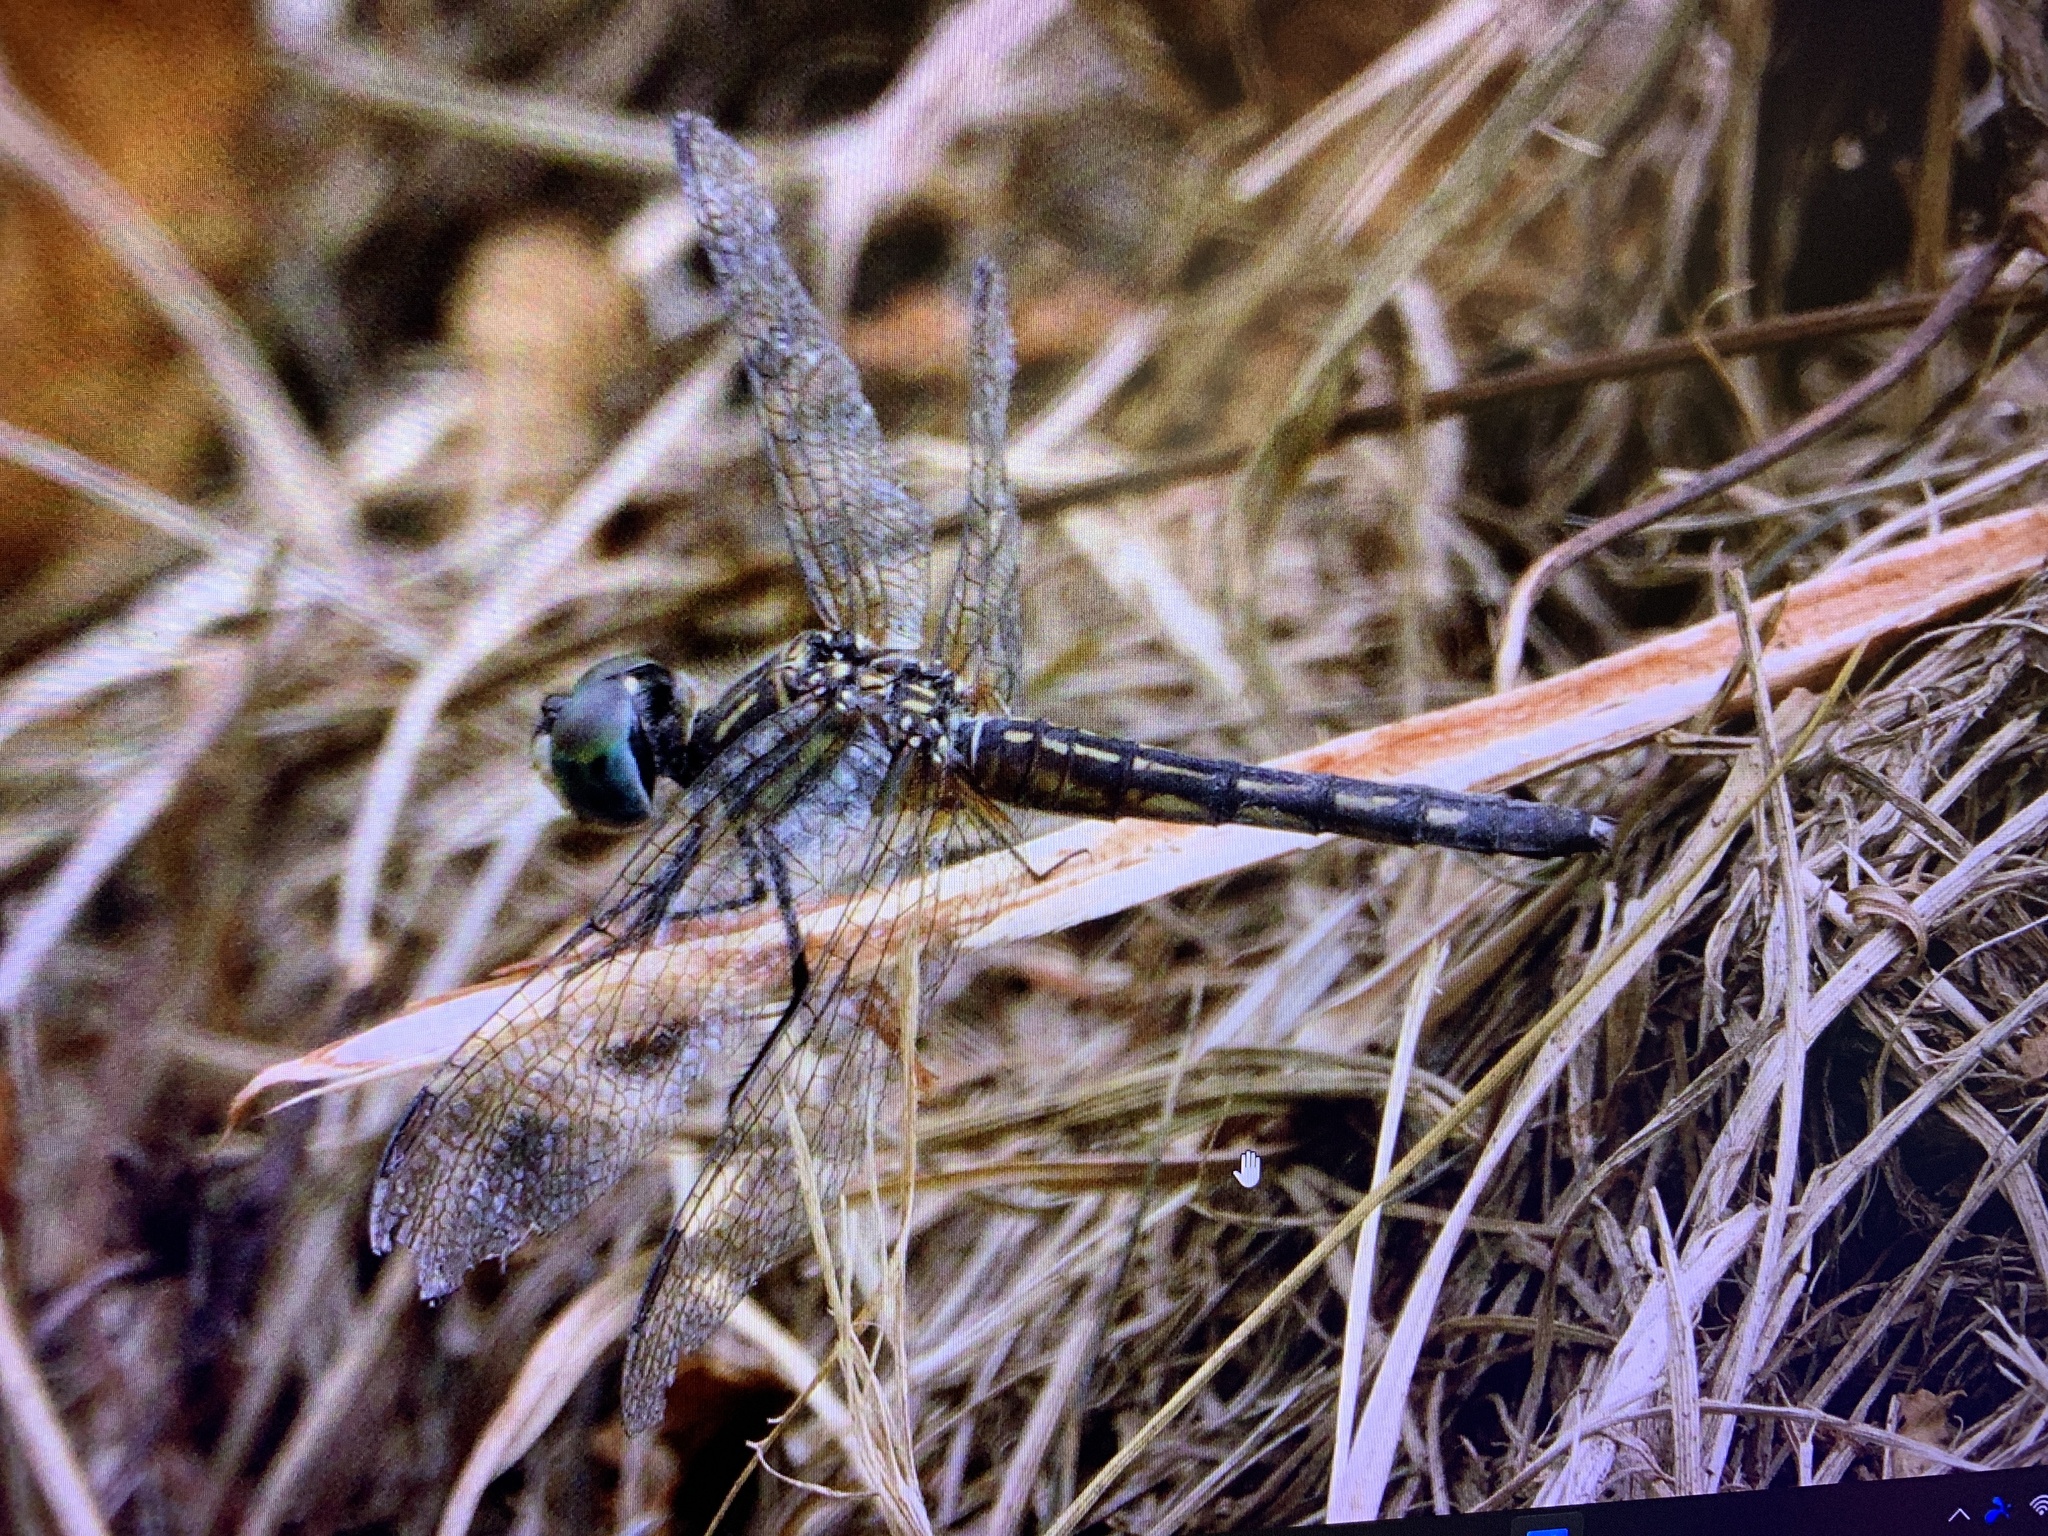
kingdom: Animalia
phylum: Arthropoda
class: Insecta
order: Odonata
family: Libellulidae
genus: Pachydiplax
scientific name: Pachydiplax longipennis
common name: Blue dasher
